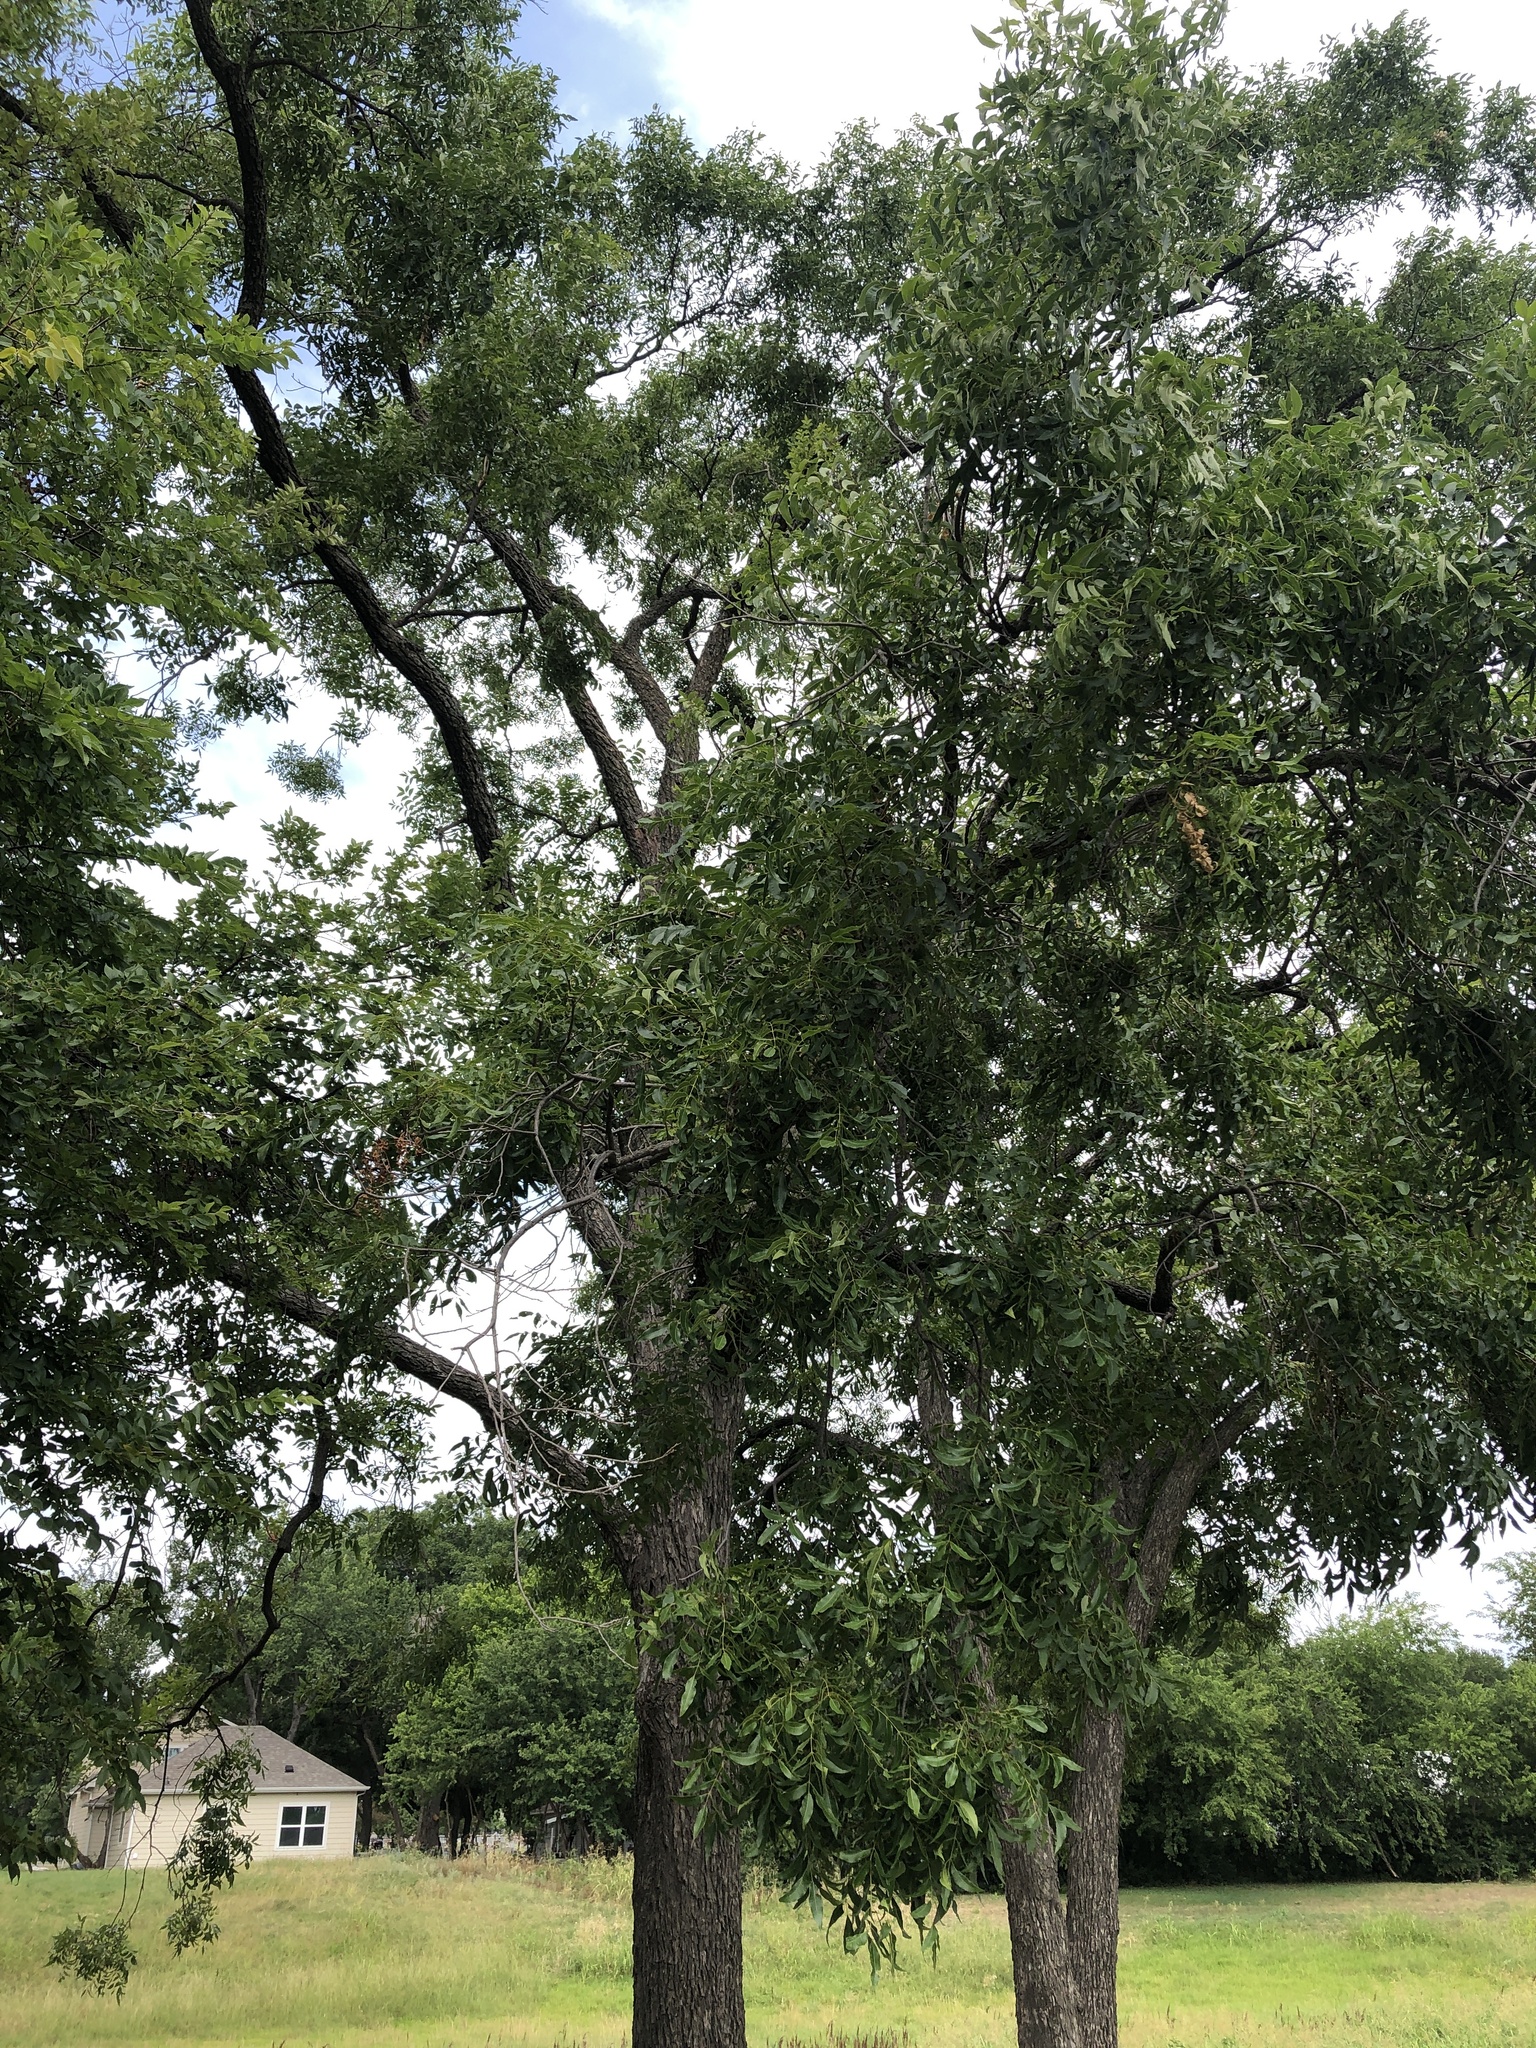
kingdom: Plantae
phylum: Tracheophyta
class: Magnoliopsida
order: Fagales
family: Juglandaceae
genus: Carya
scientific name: Carya illinoinensis
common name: Pecan
